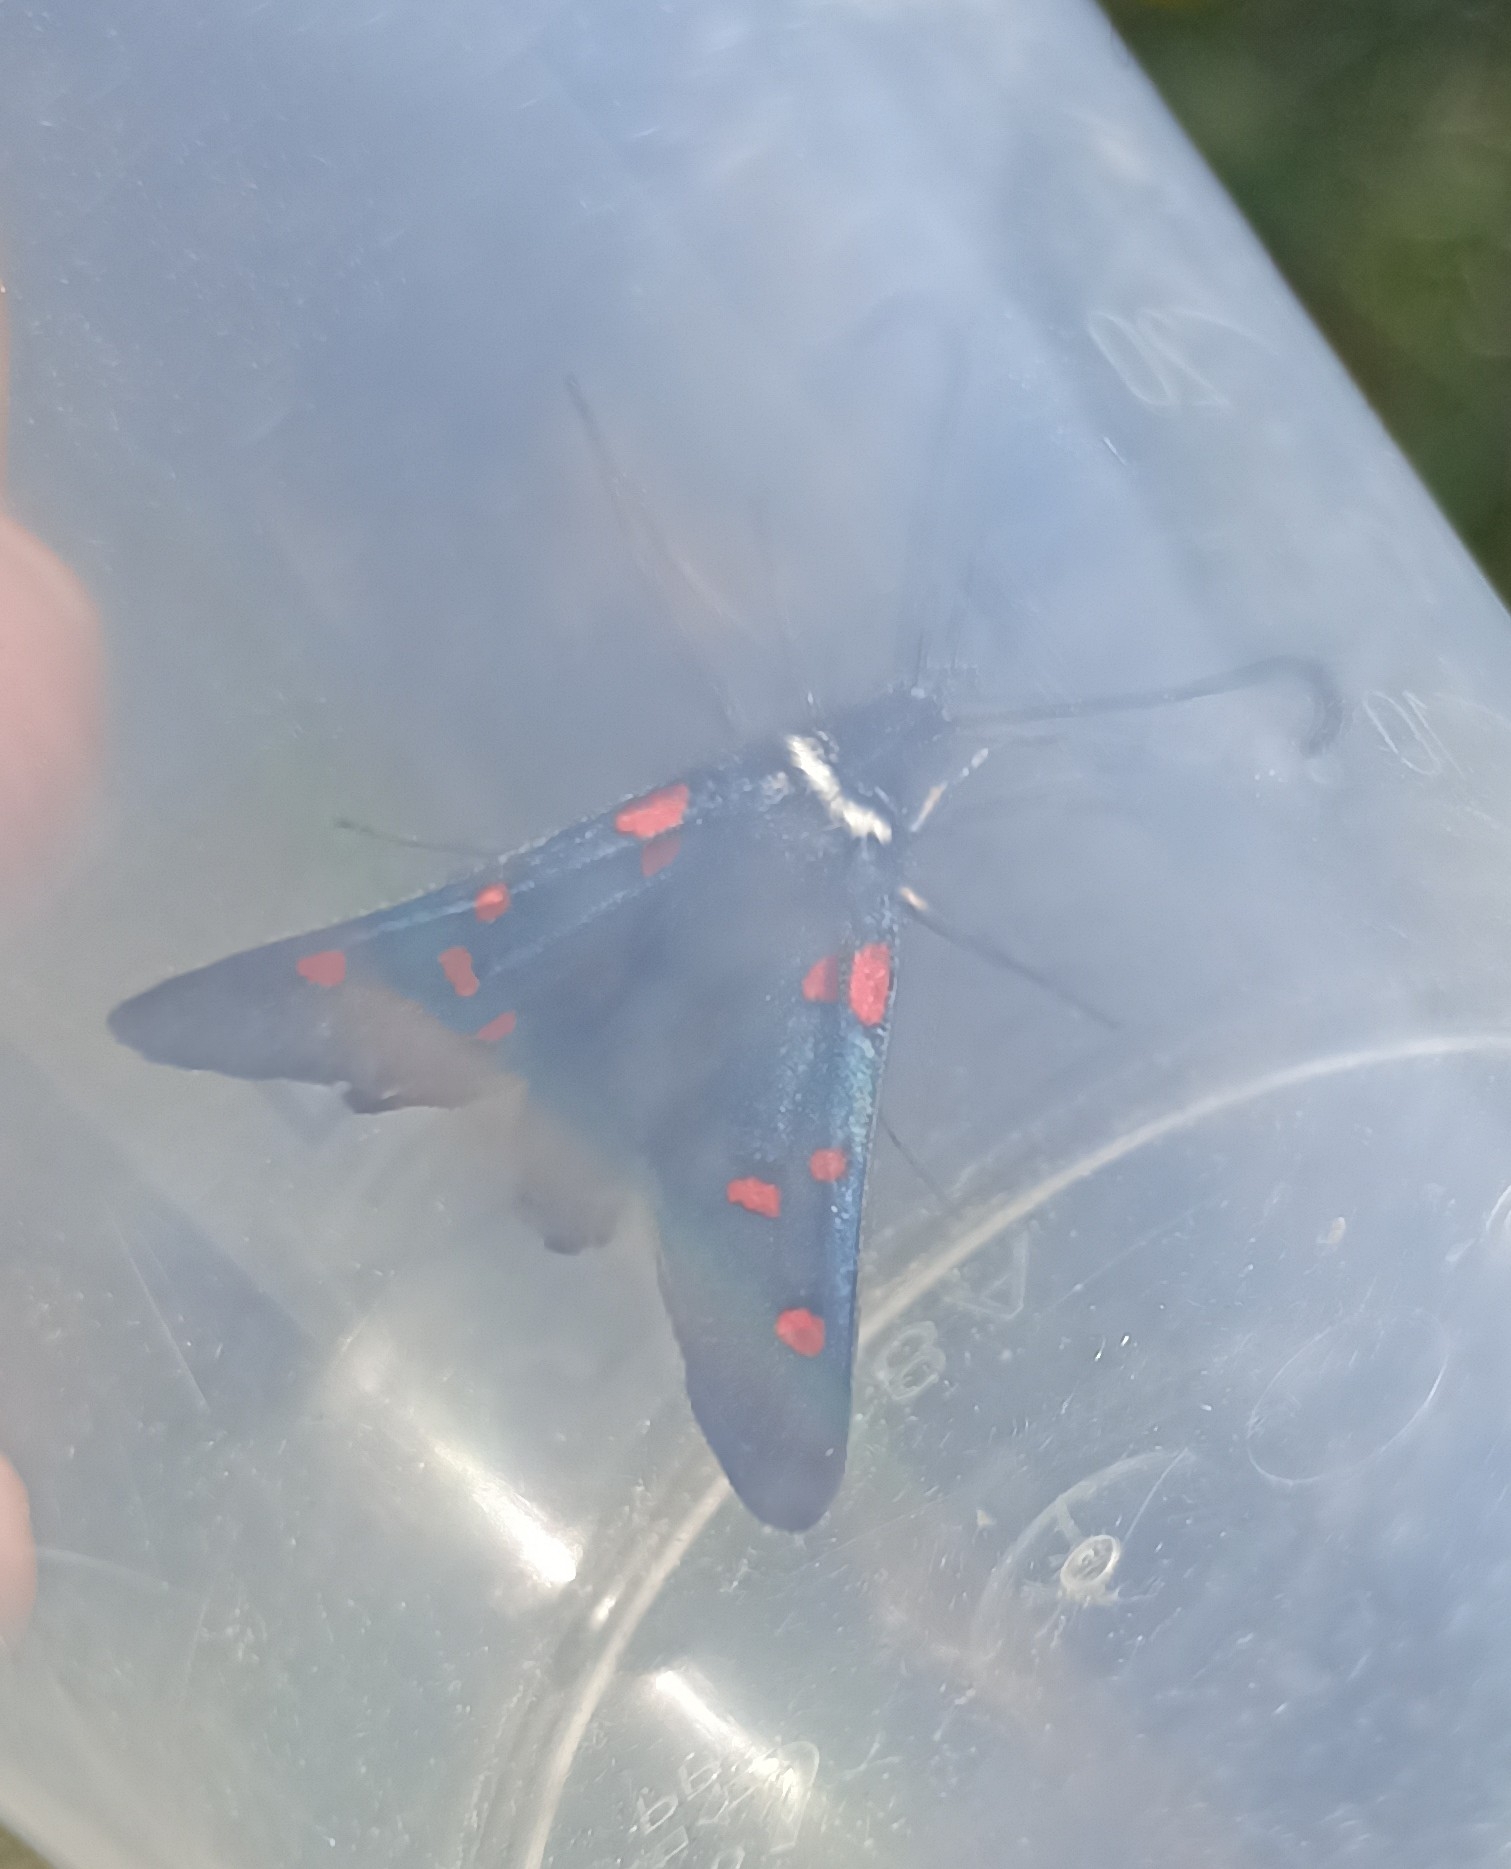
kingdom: Animalia
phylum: Arthropoda
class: Insecta
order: Lepidoptera
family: Zygaenidae
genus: Zygaena
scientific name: Zygaena lavandulae
